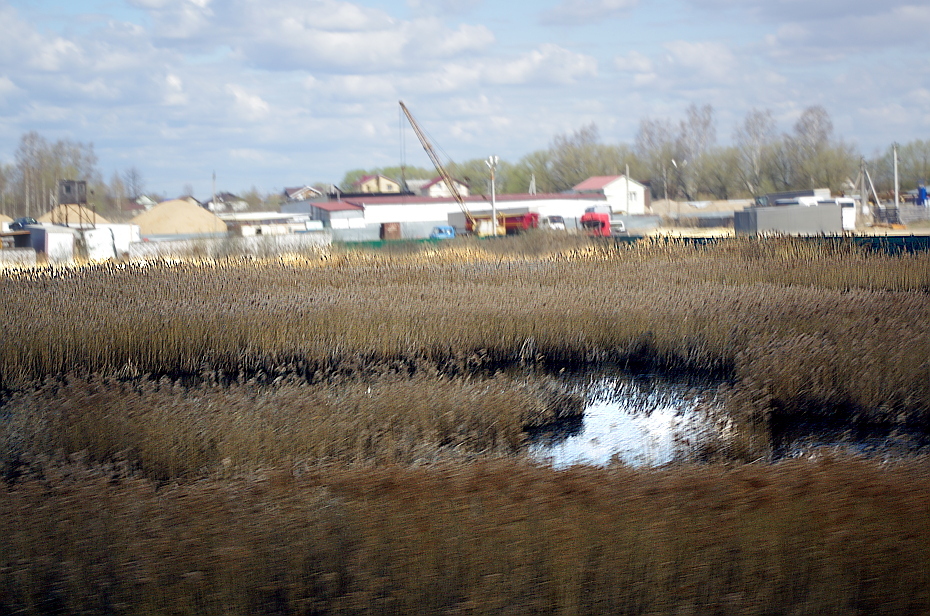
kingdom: Plantae
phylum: Tracheophyta
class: Liliopsida
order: Poales
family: Poaceae
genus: Phragmites
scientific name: Phragmites australis
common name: Common reed
